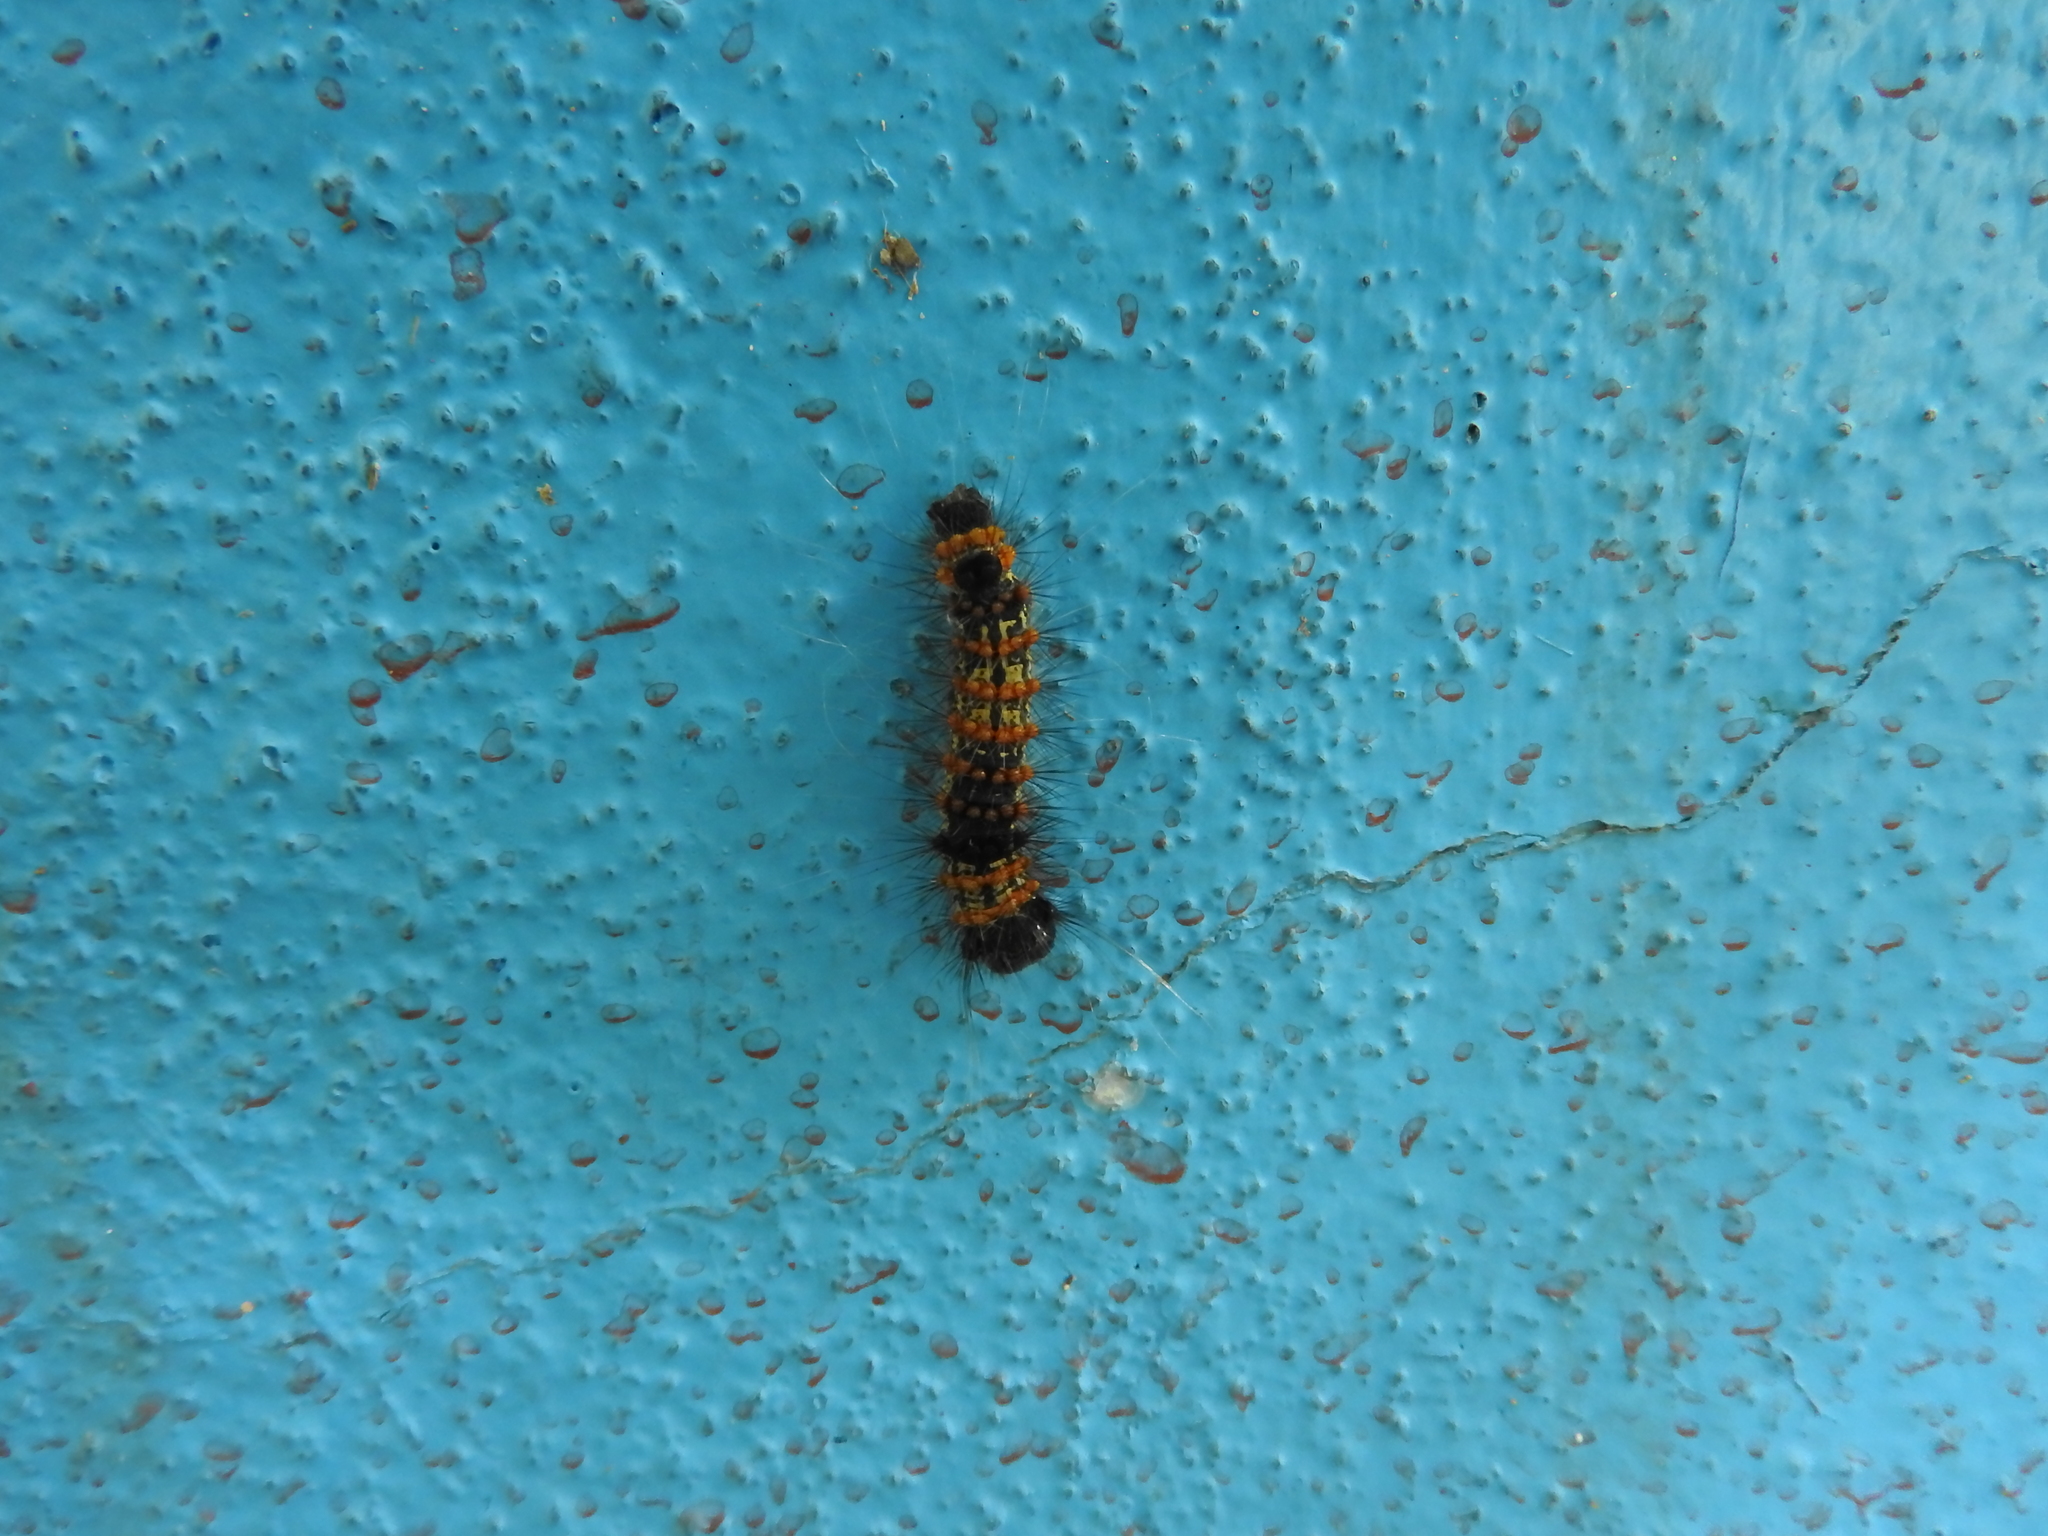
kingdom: Animalia
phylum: Arthropoda
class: Insecta
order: Lepidoptera
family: Erebidae
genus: Dysschema
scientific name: Dysschema leucophaea
